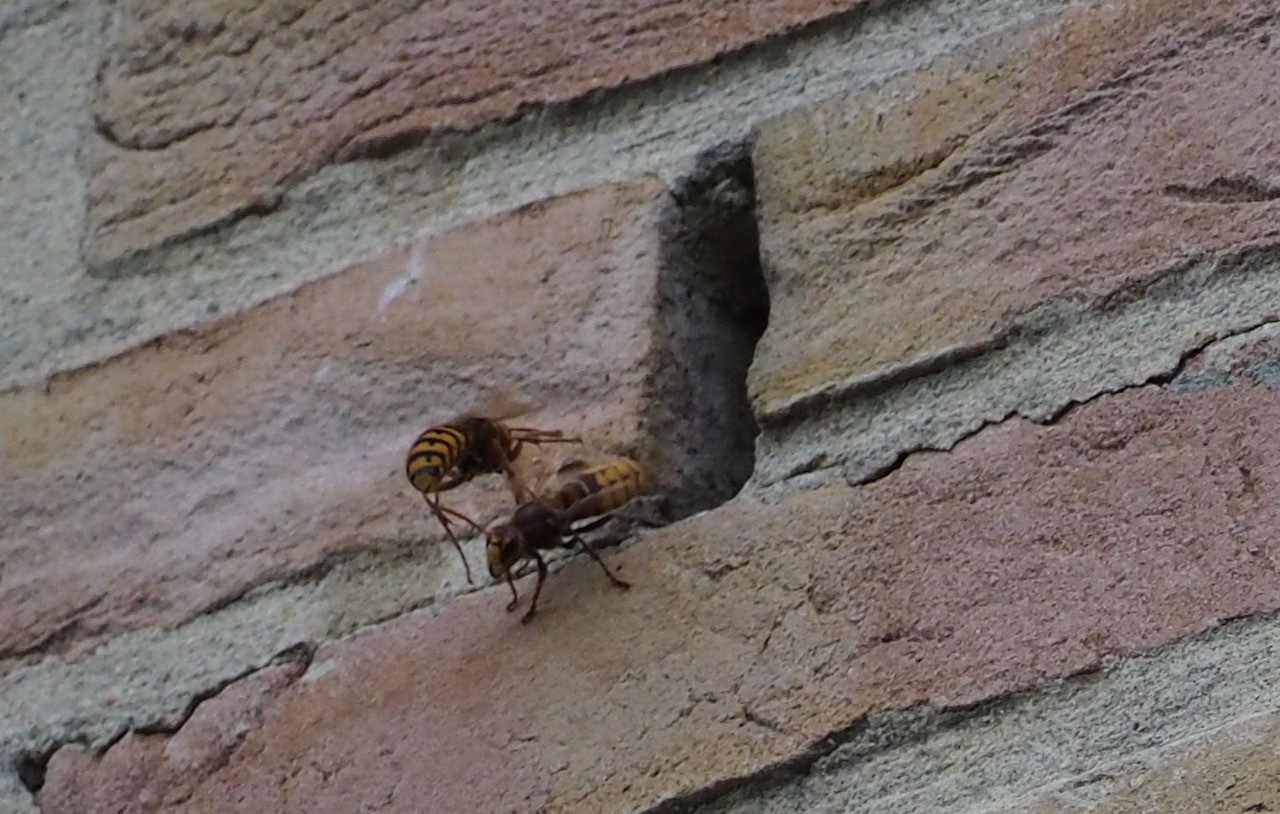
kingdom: Animalia
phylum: Arthropoda
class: Insecta
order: Hymenoptera
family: Vespidae
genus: Vespa
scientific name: Vespa crabro
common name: Hornet
